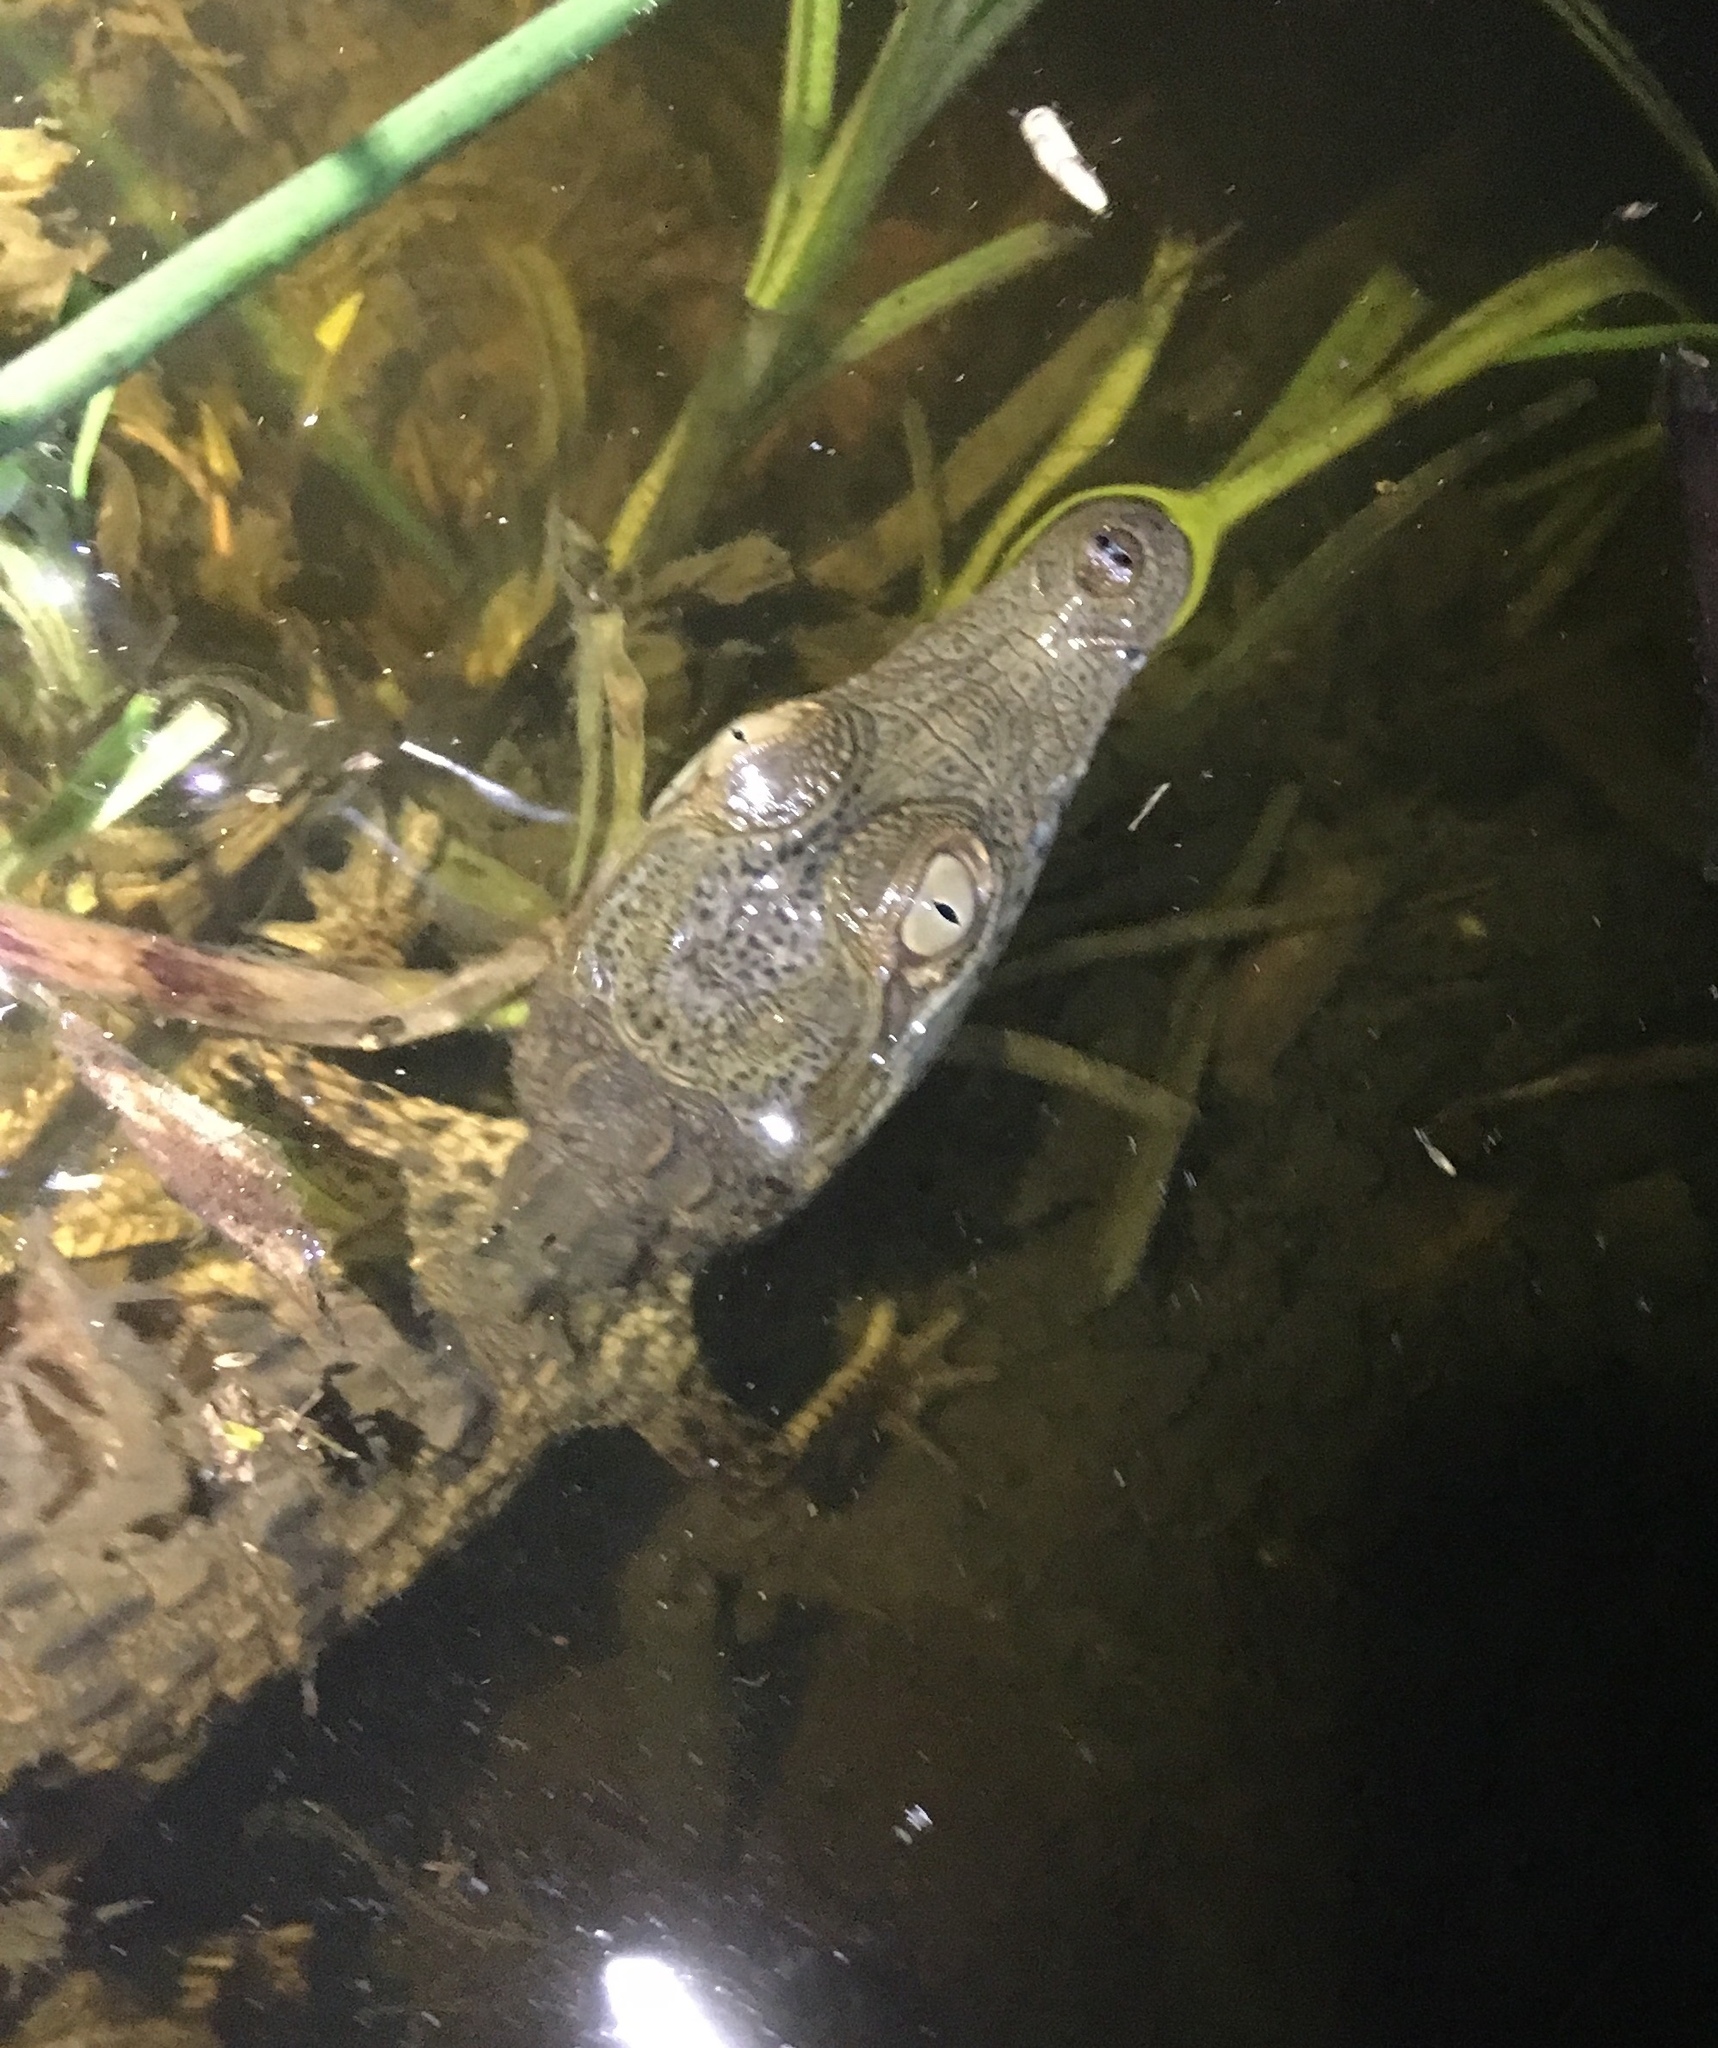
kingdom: Animalia
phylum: Chordata
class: Crocodylia
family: Crocodylidae
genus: Crocodylus
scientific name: Crocodylus acutus
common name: American crocodile
